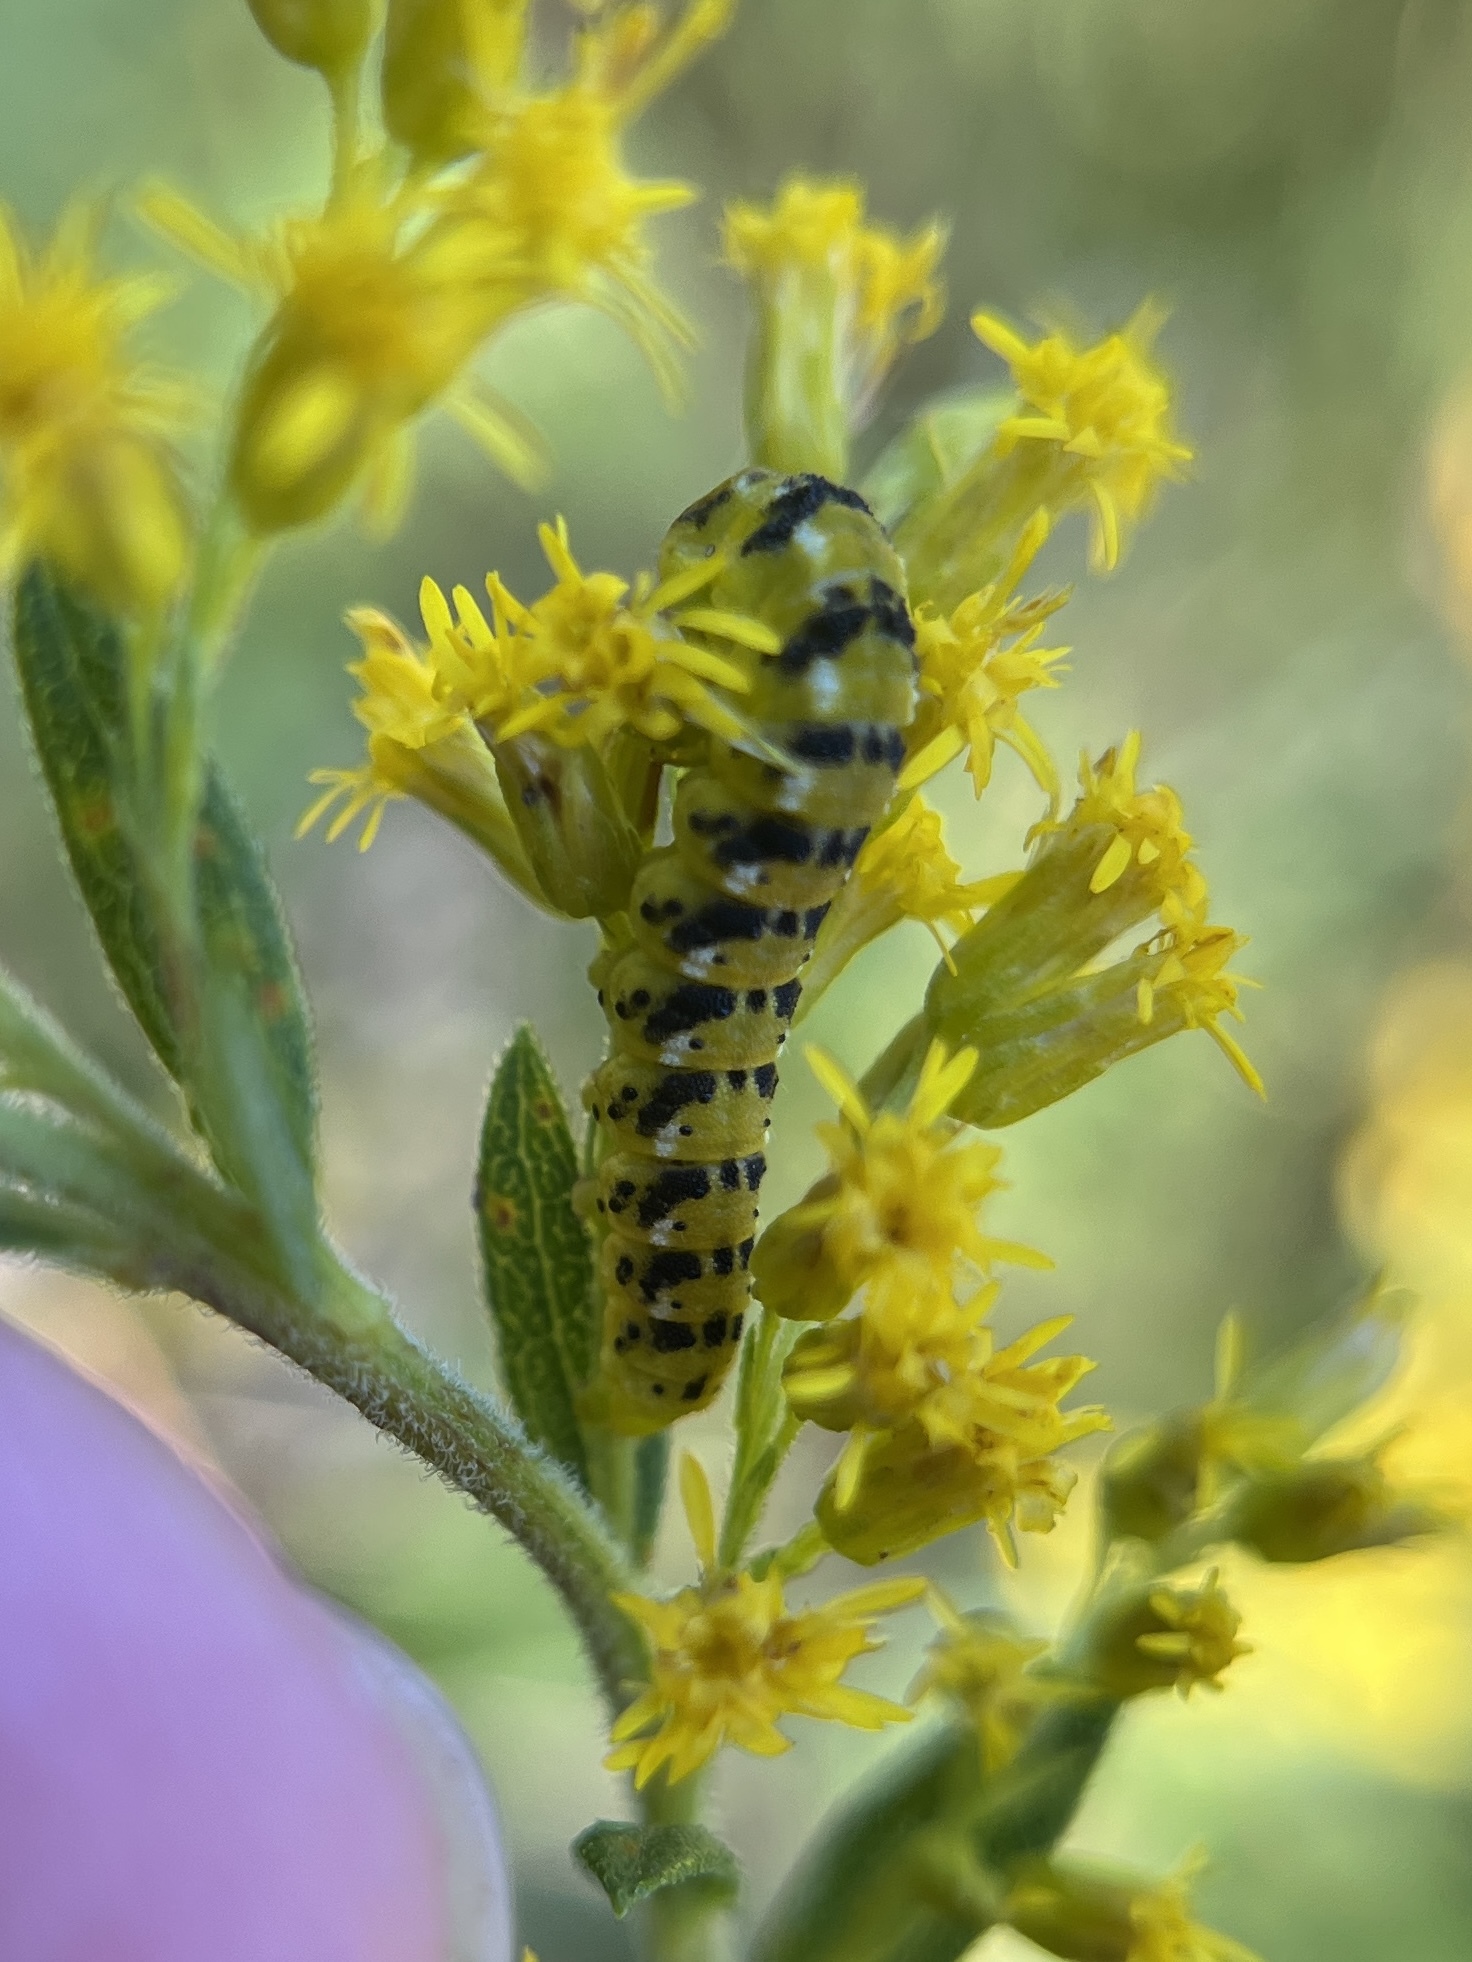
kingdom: Animalia
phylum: Arthropoda
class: Insecta
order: Lepidoptera
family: Noctuidae
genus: Schinia
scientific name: Schinia nundina
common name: Goldenrod flower moth
